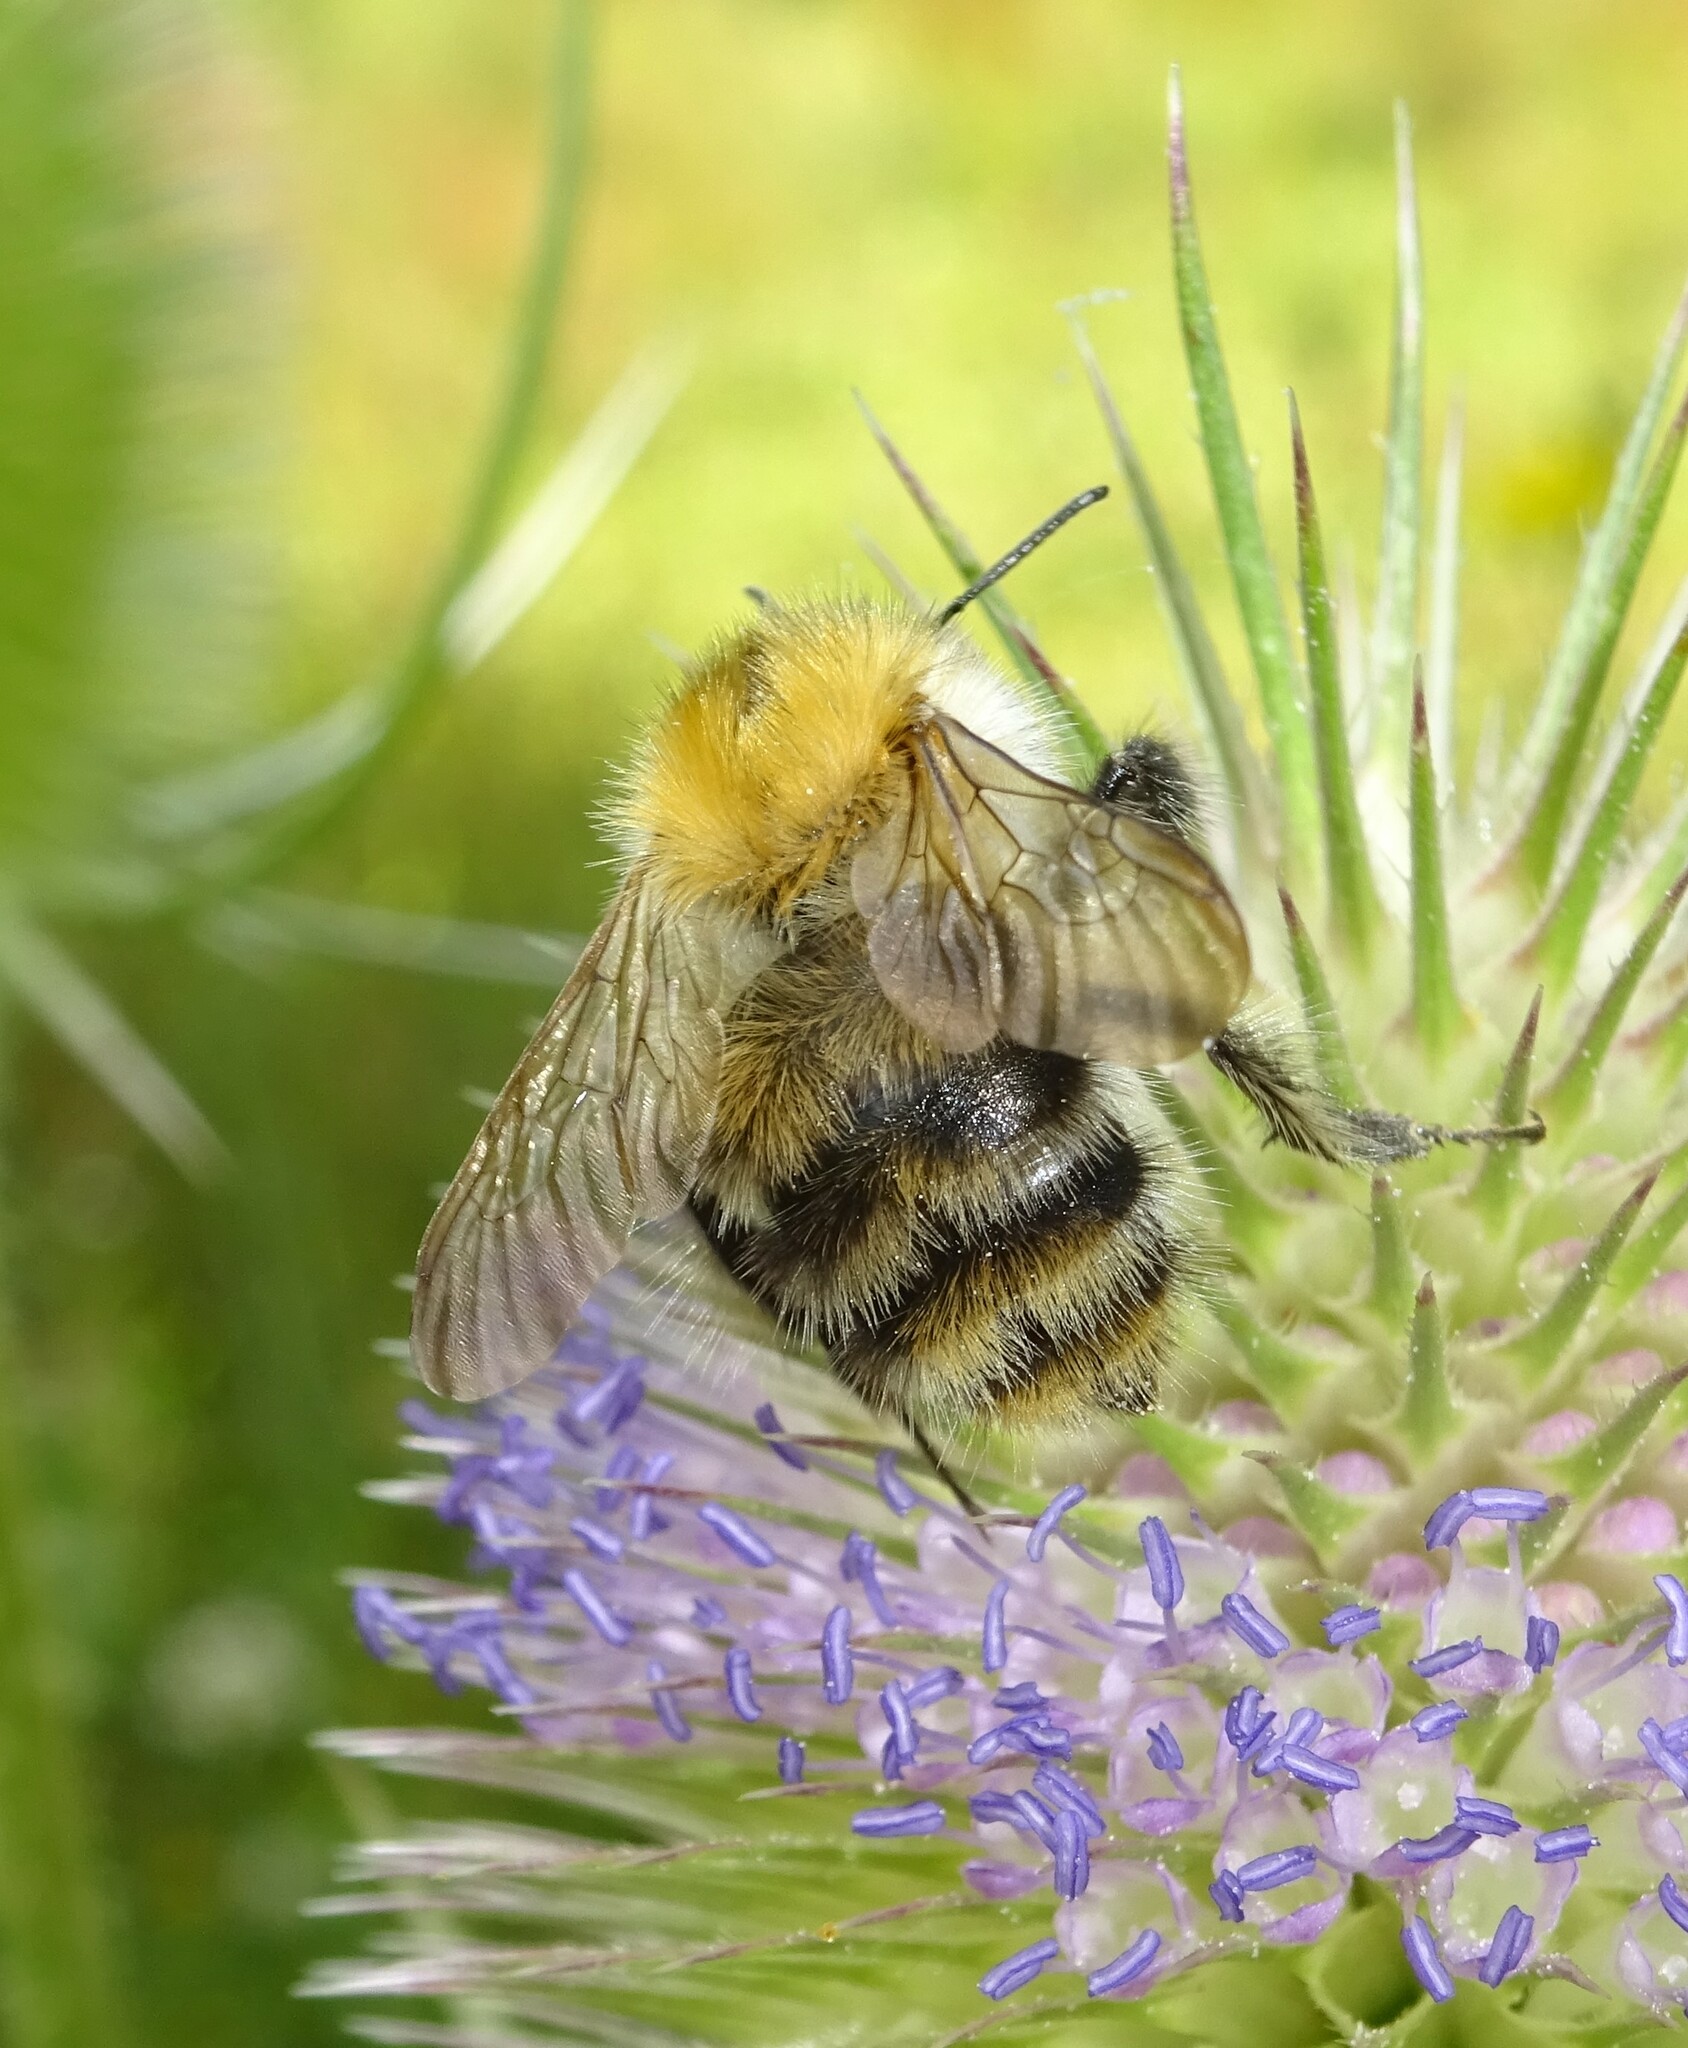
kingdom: Animalia
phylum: Arthropoda
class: Insecta
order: Hymenoptera
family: Apidae
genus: Bombus
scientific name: Bombus pascuorum
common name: Common carder bee
